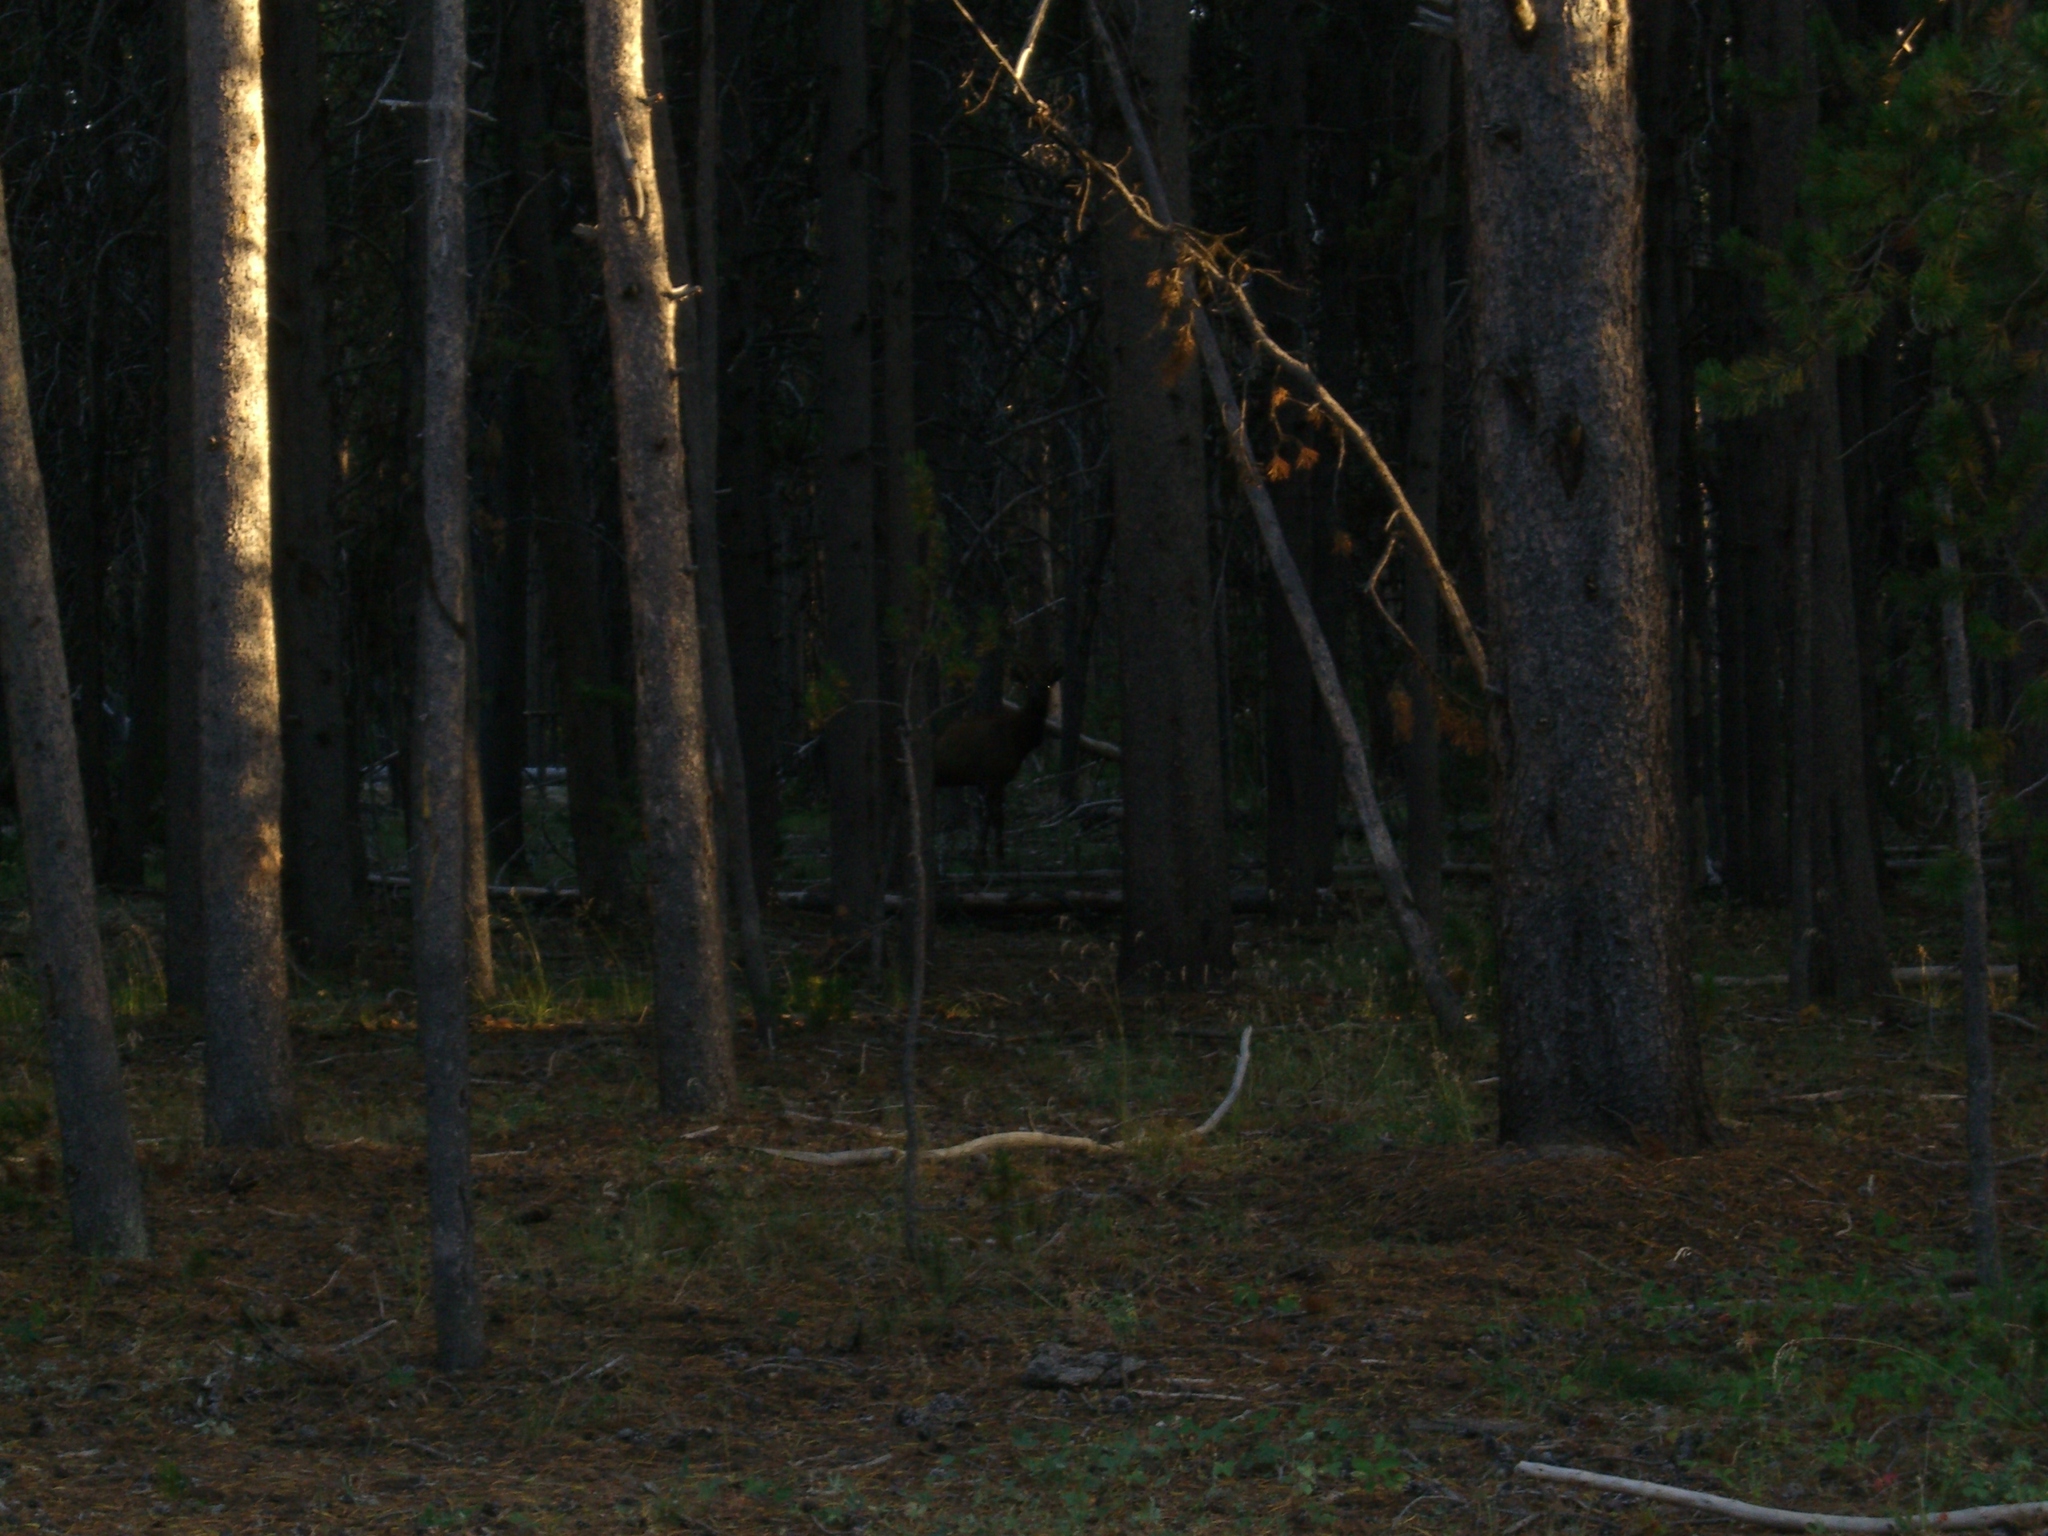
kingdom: Animalia
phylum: Chordata
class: Mammalia
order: Artiodactyla
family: Cervidae
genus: Cervus
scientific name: Cervus elaphus
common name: Red deer
